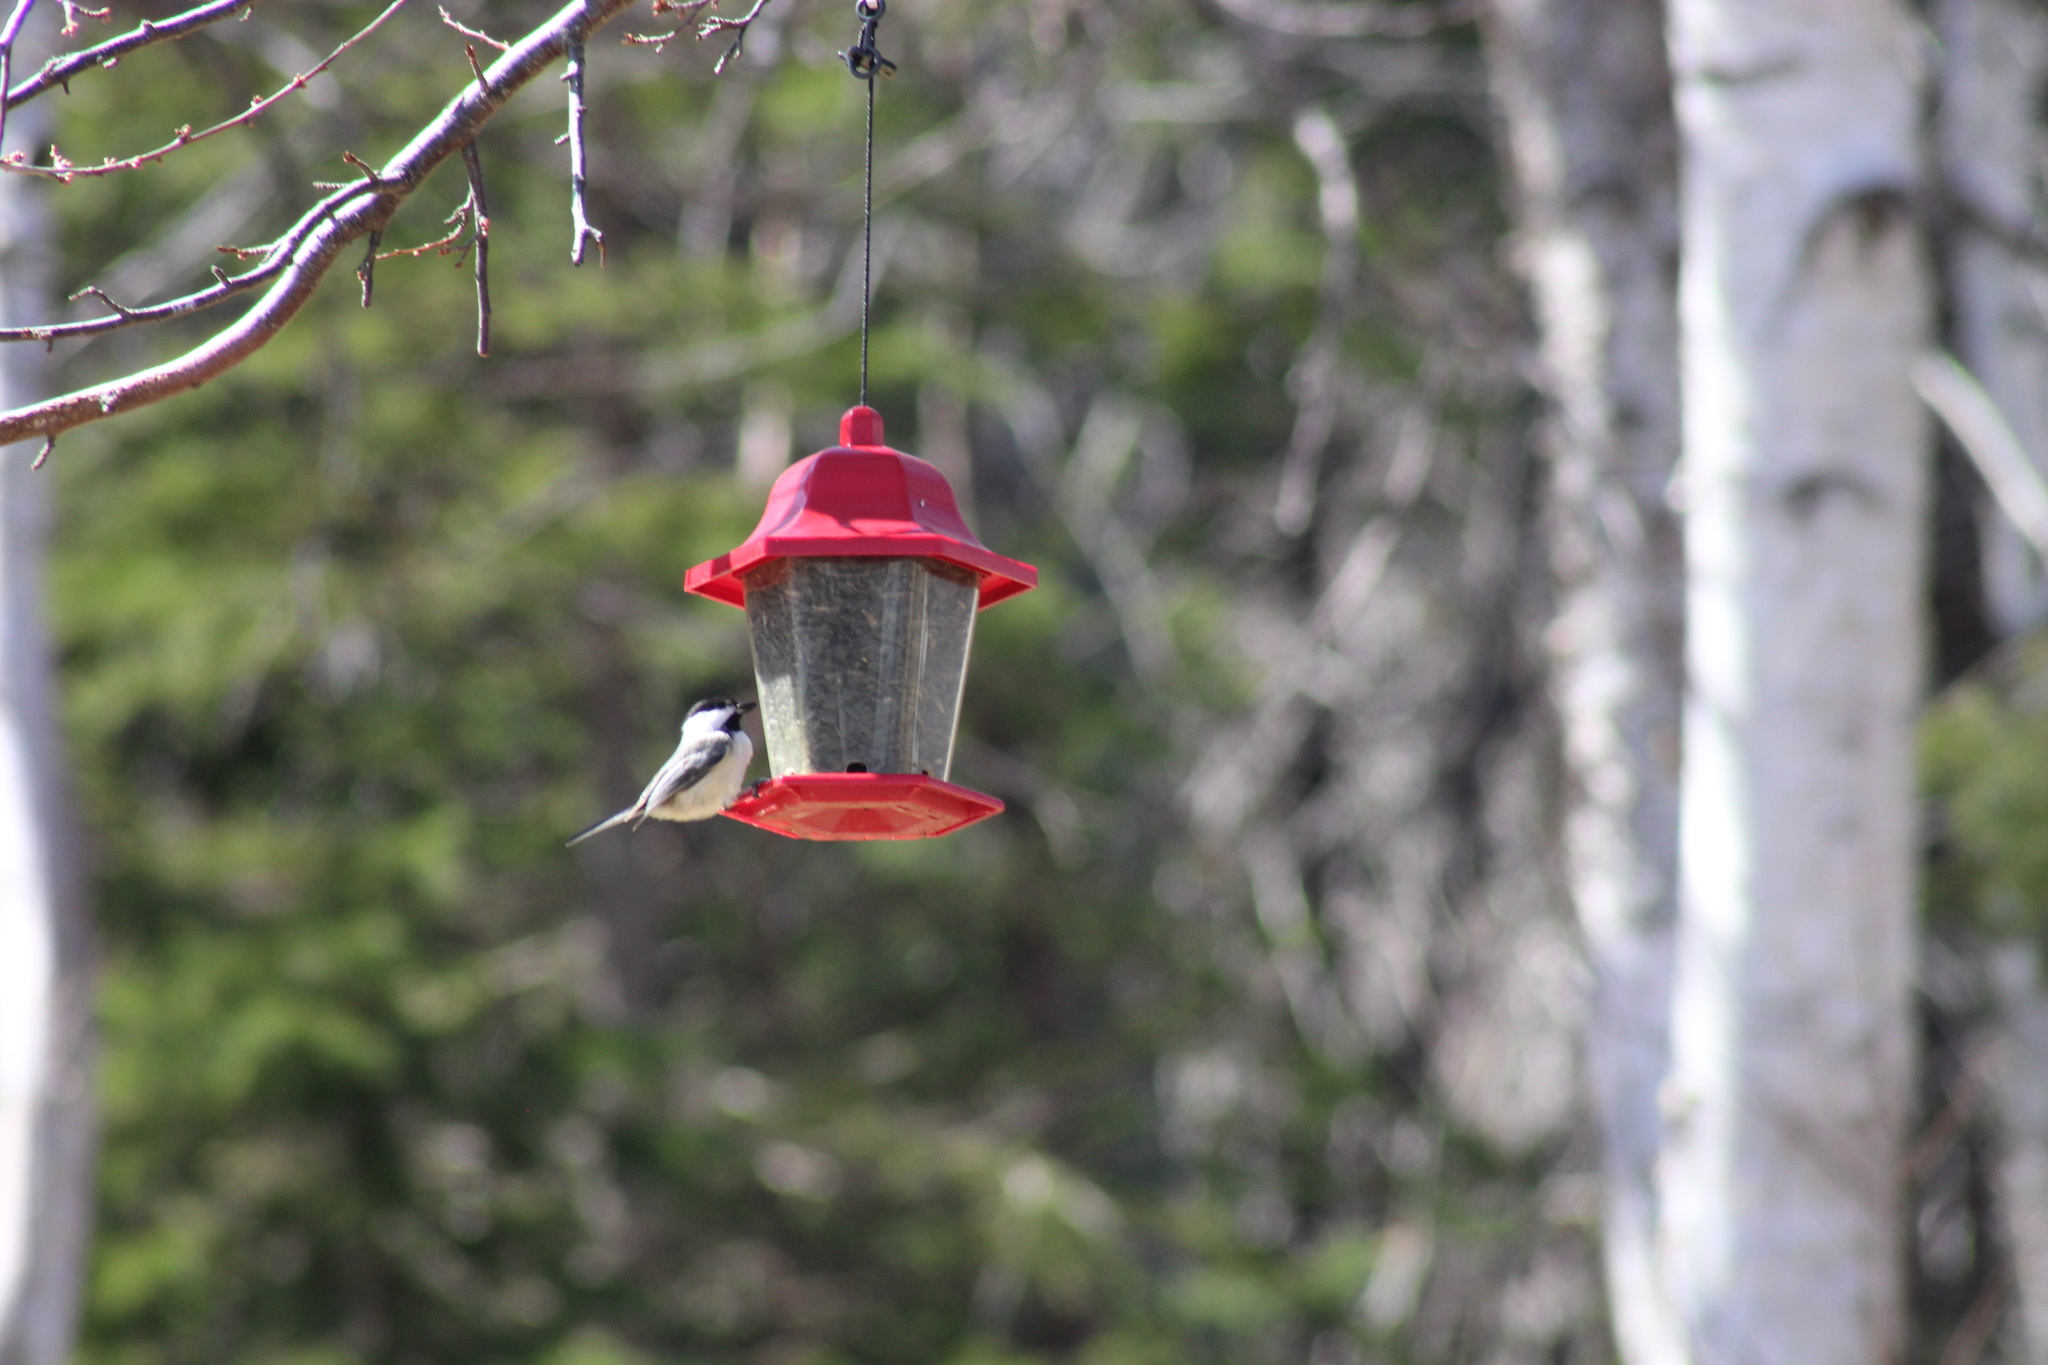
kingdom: Animalia
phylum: Chordata
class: Aves
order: Passeriformes
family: Paridae
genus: Poecile
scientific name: Poecile atricapillus
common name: Black-capped chickadee
